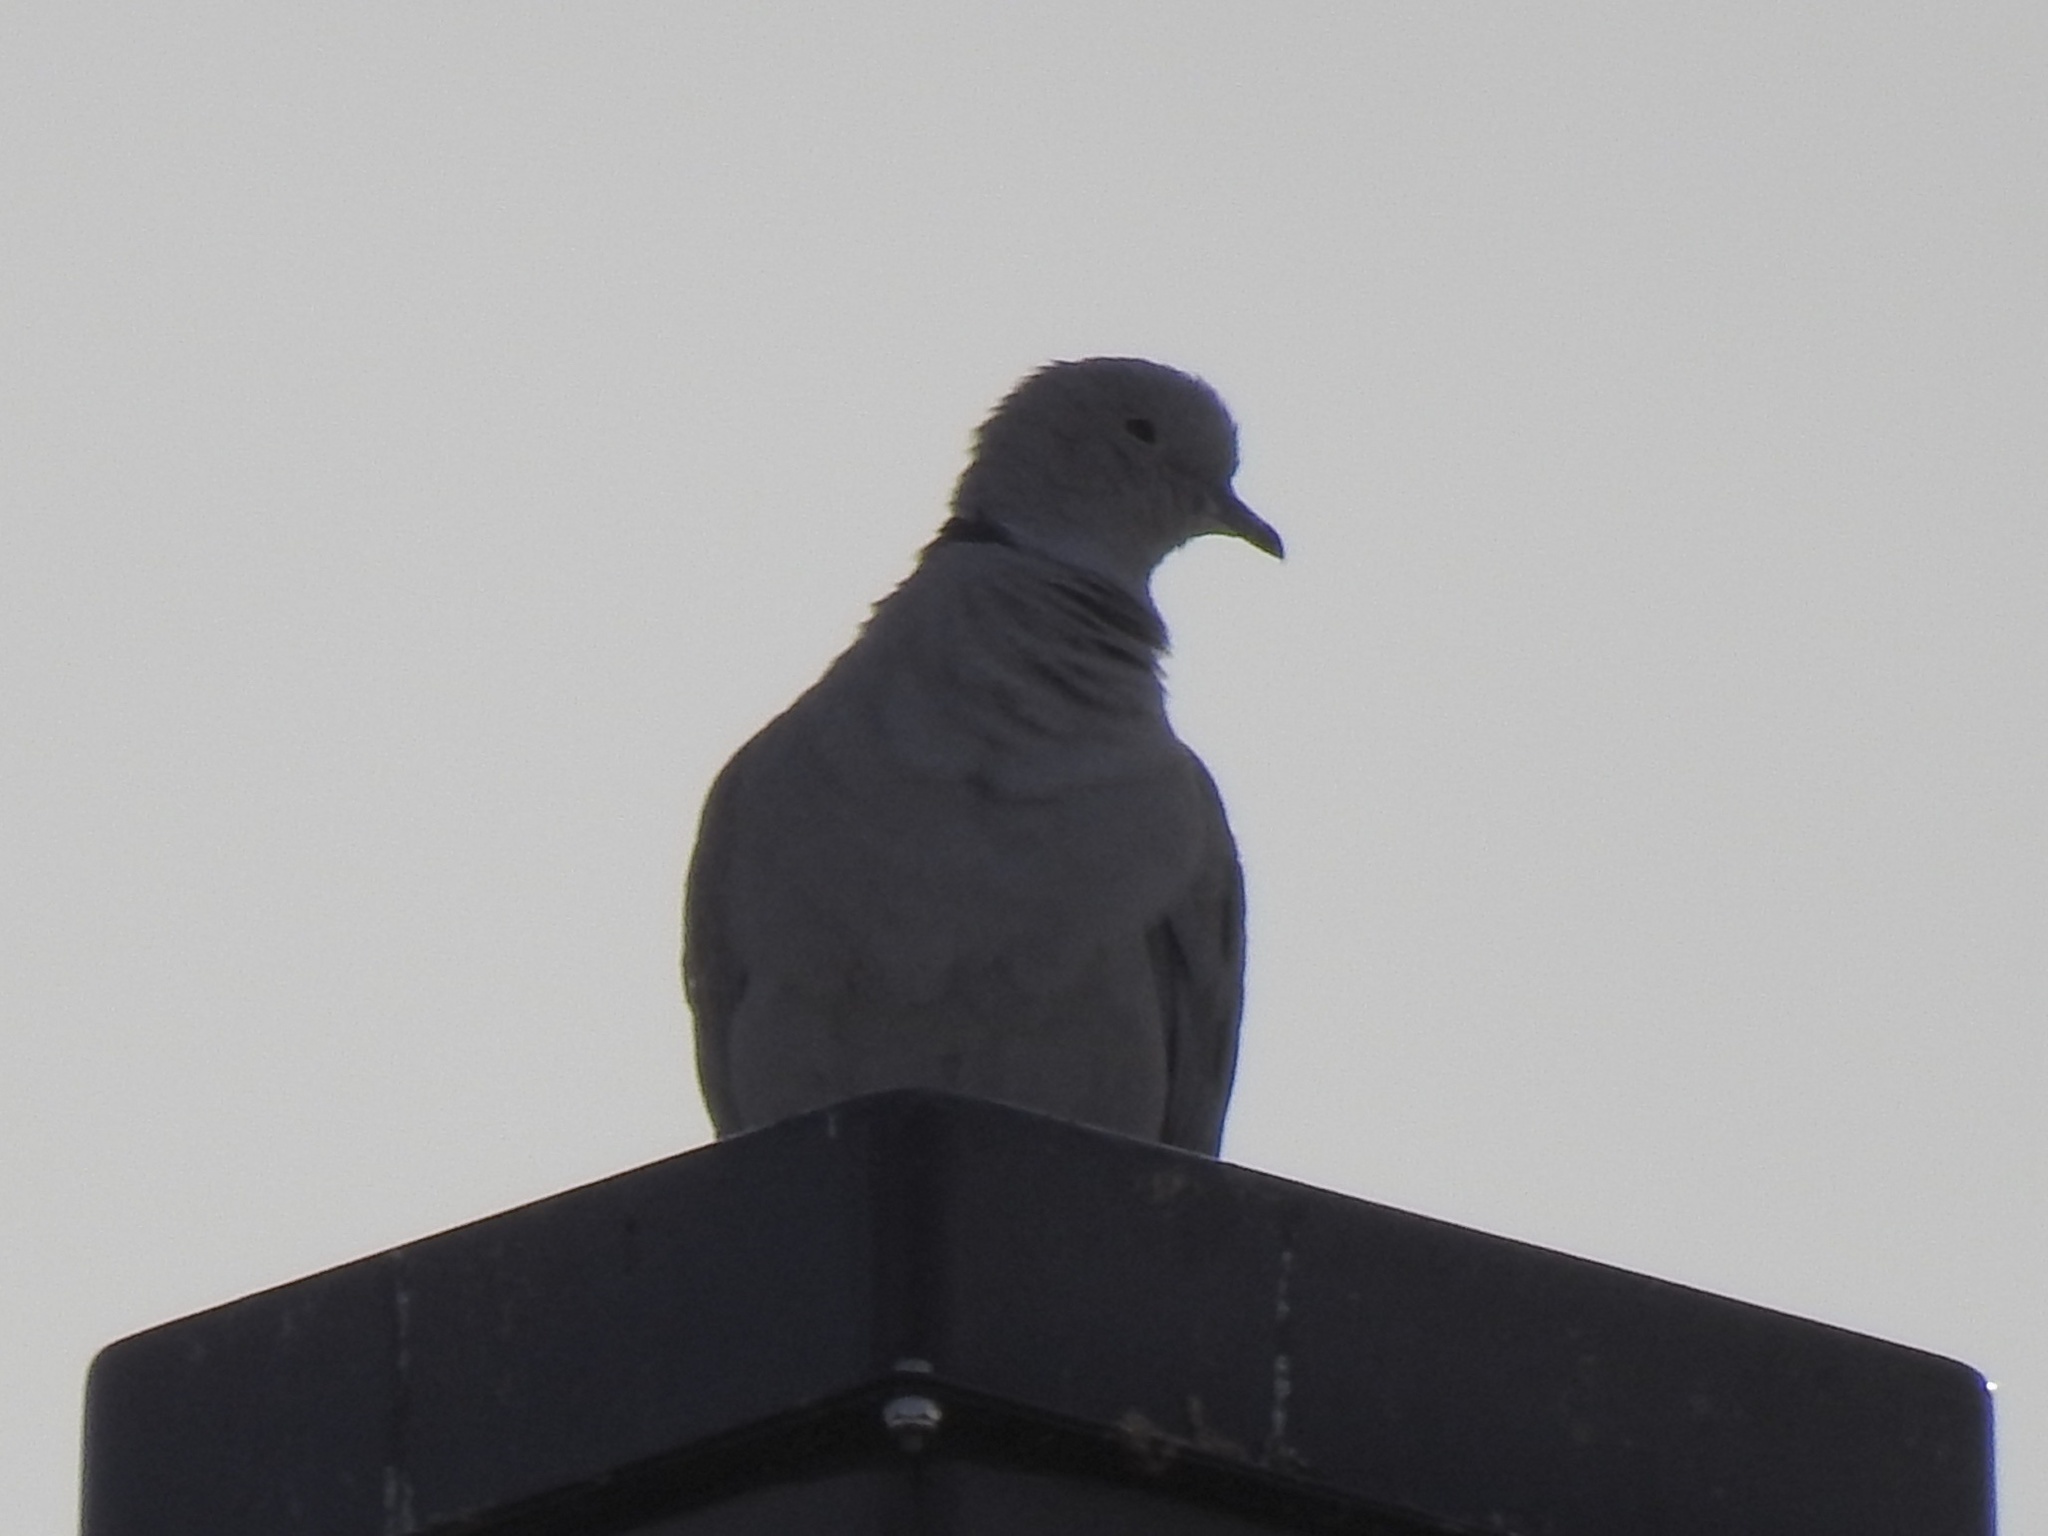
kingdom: Animalia
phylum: Chordata
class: Aves
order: Columbiformes
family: Columbidae
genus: Streptopelia
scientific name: Streptopelia decaocto
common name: Eurasian collared dove
